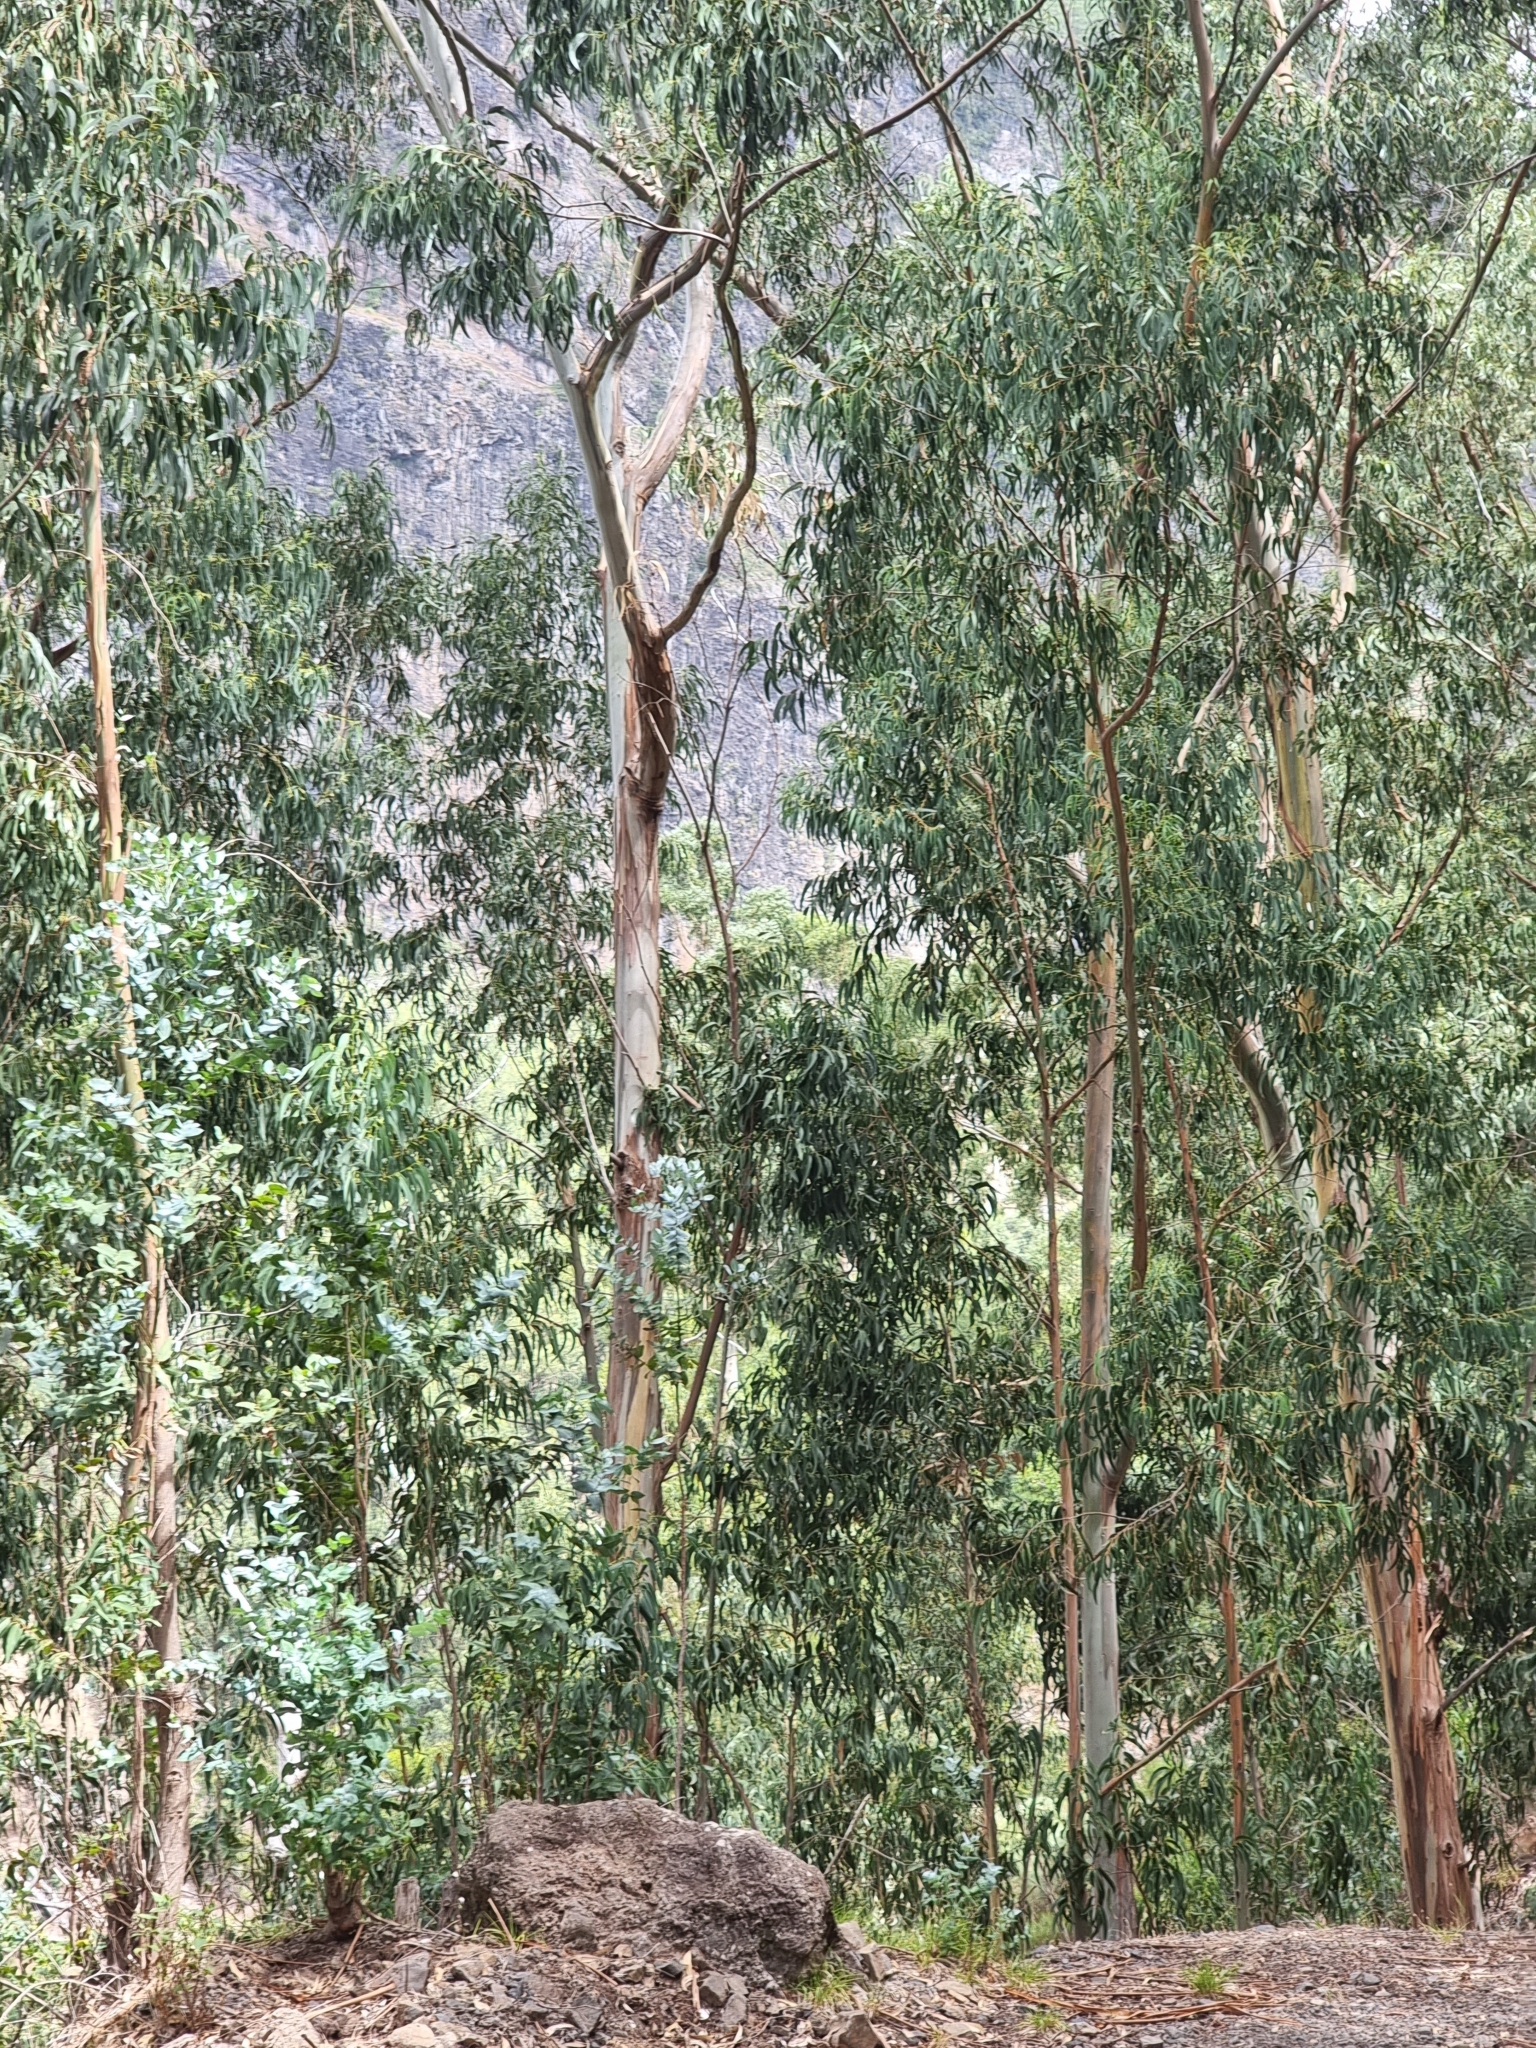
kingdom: Plantae
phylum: Tracheophyta
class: Magnoliopsida
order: Myrtales
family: Myrtaceae
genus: Eucalyptus
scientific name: Eucalyptus globulus
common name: Southern blue-gum
